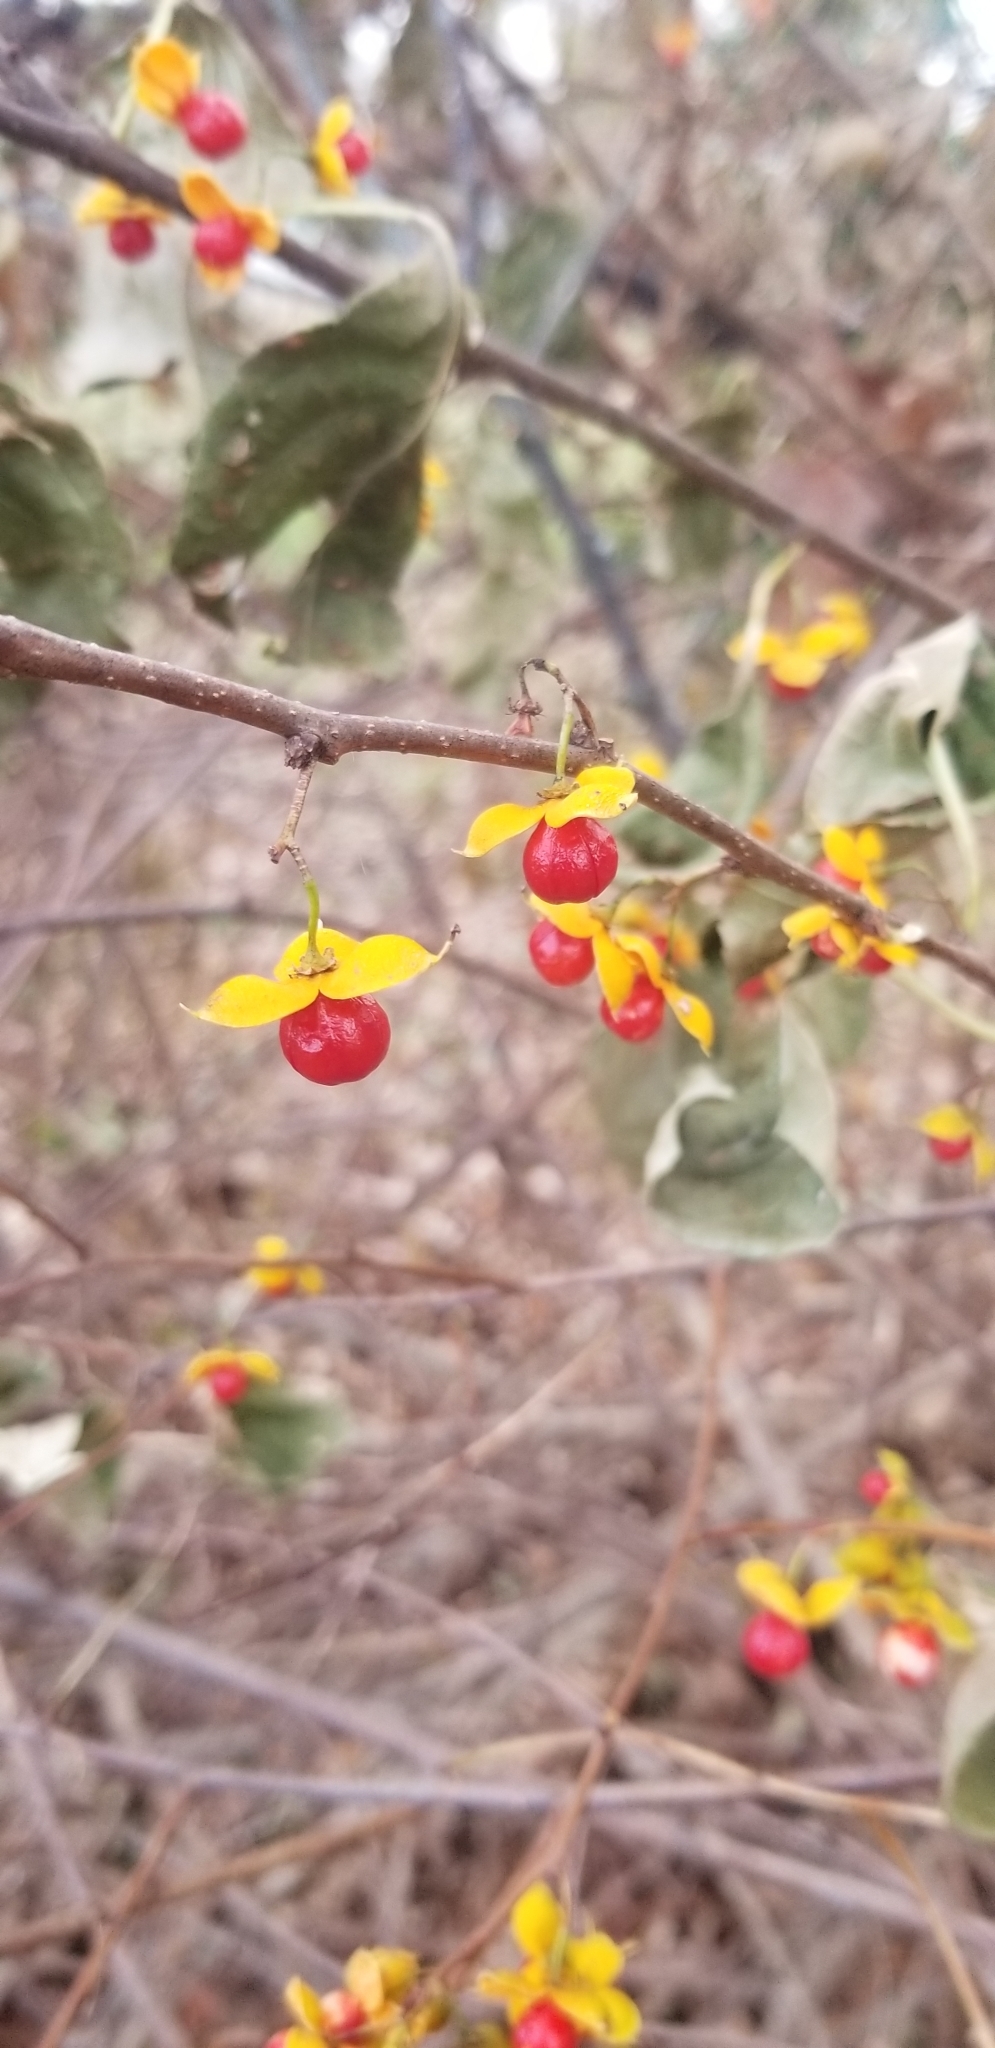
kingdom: Plantae
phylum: Tracheophyta
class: Magnoliopsida
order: Celastrales
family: Celastraceae
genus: Celastrus
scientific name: Celastrus orbiculatus
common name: Oriental bittersweet
